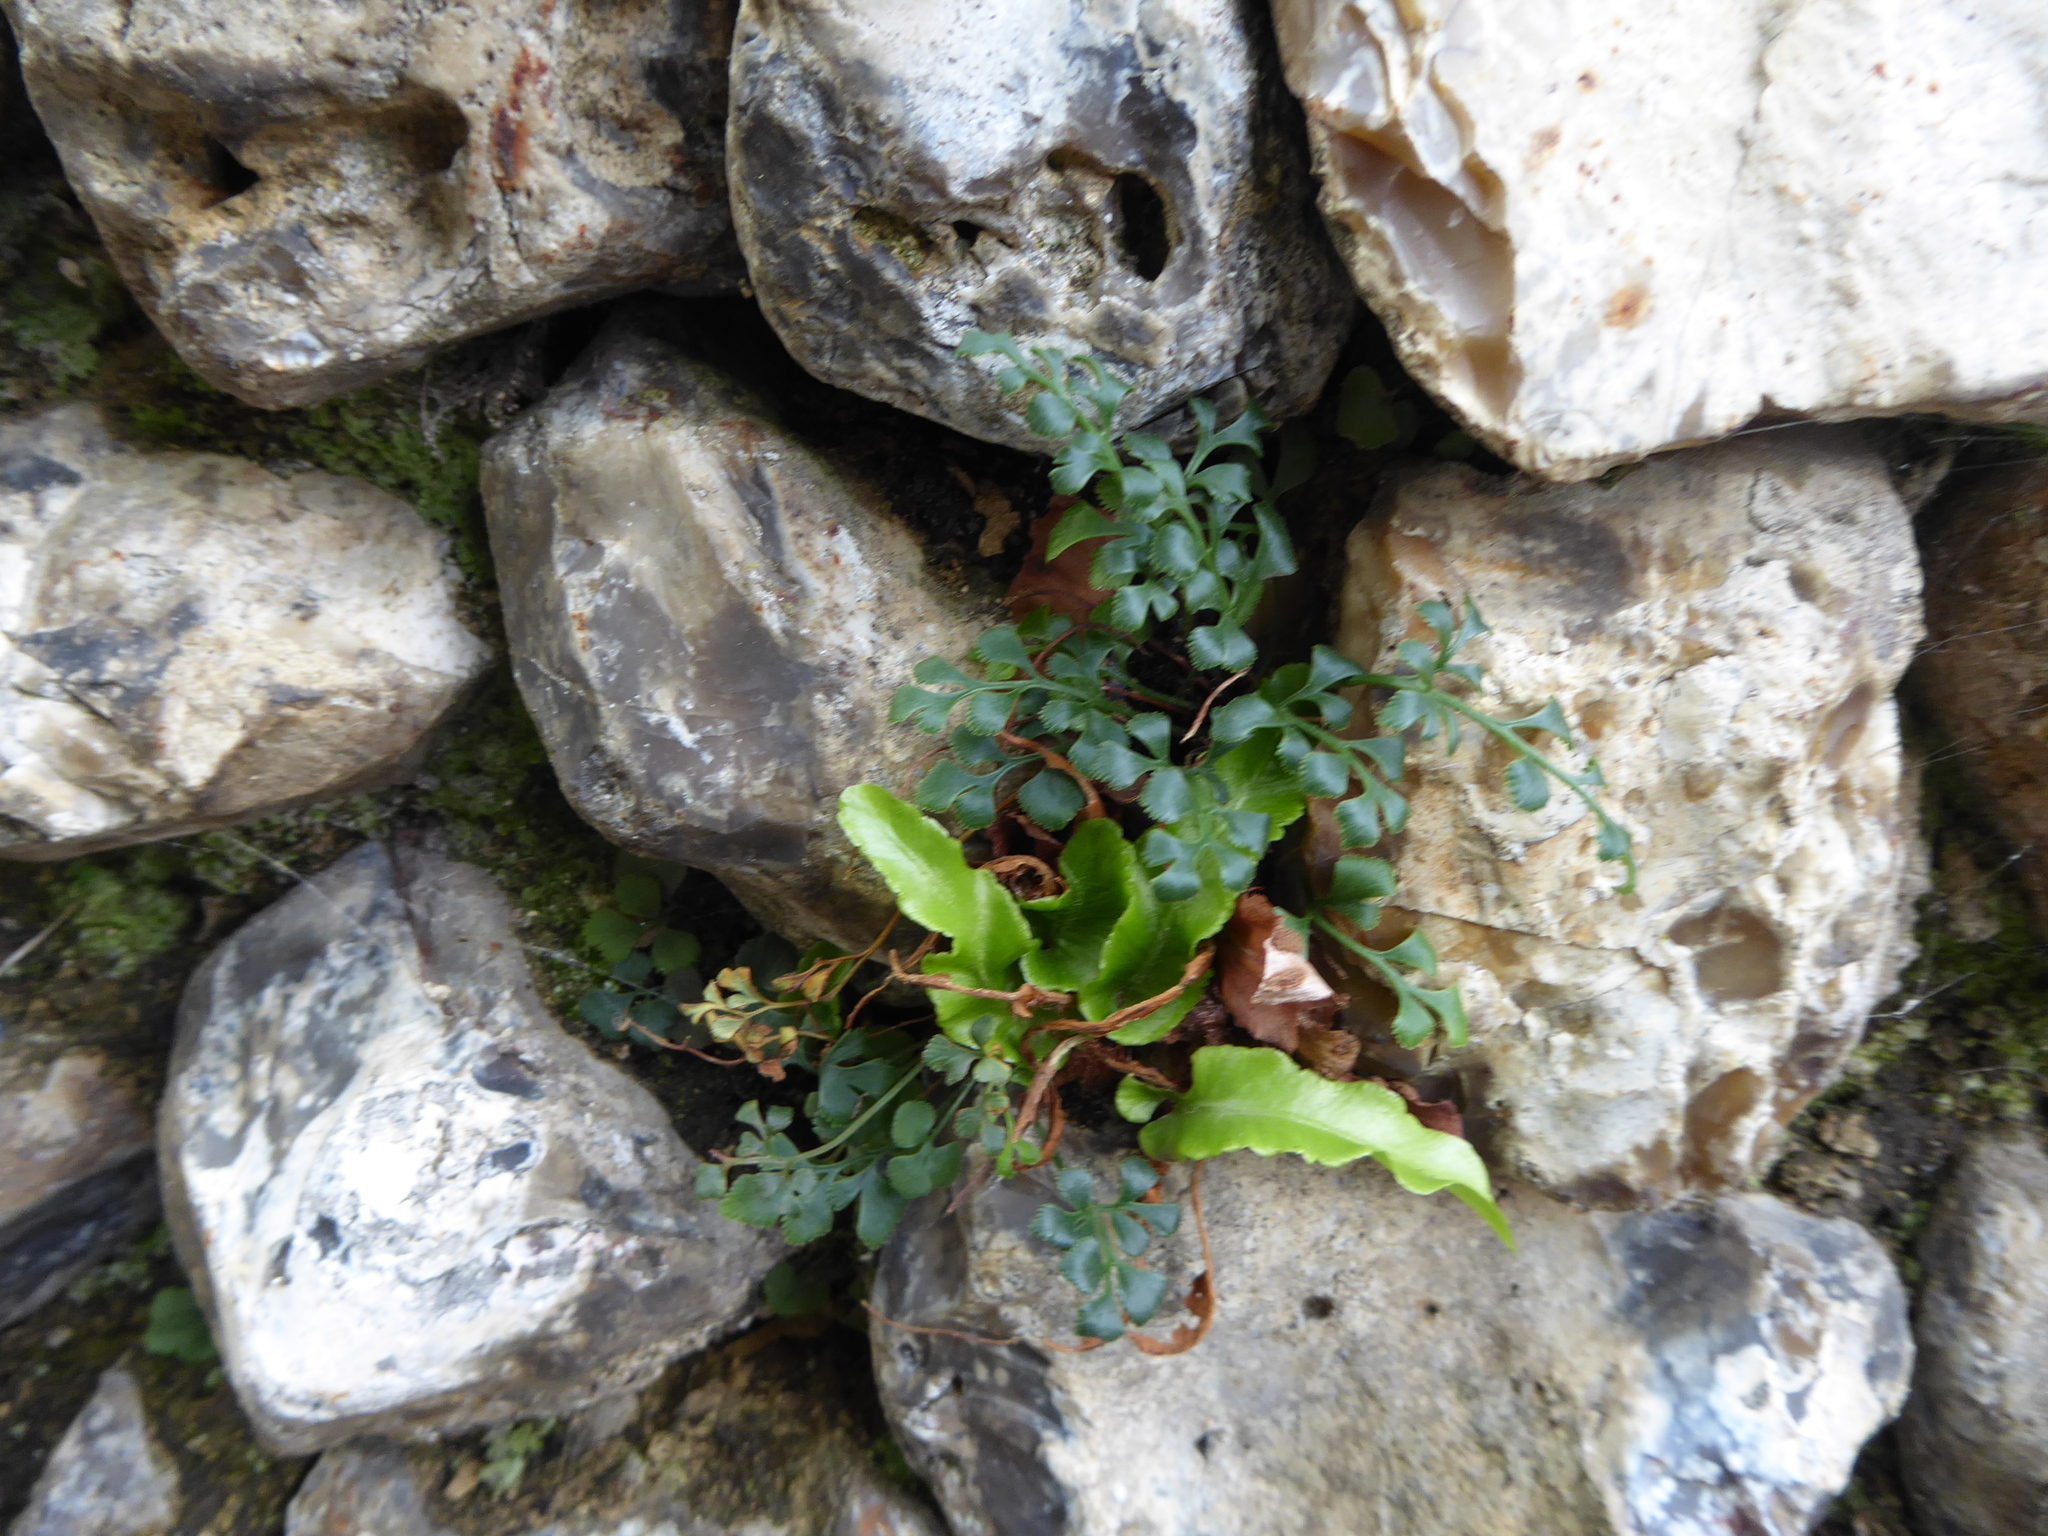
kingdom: Plantae
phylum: Tracheophyta
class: Polypodiopsida
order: Polypodiales
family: Aspleniaceae
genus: Asplenium
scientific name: Asplenium scolopendrium
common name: Hart's-tongue fern
